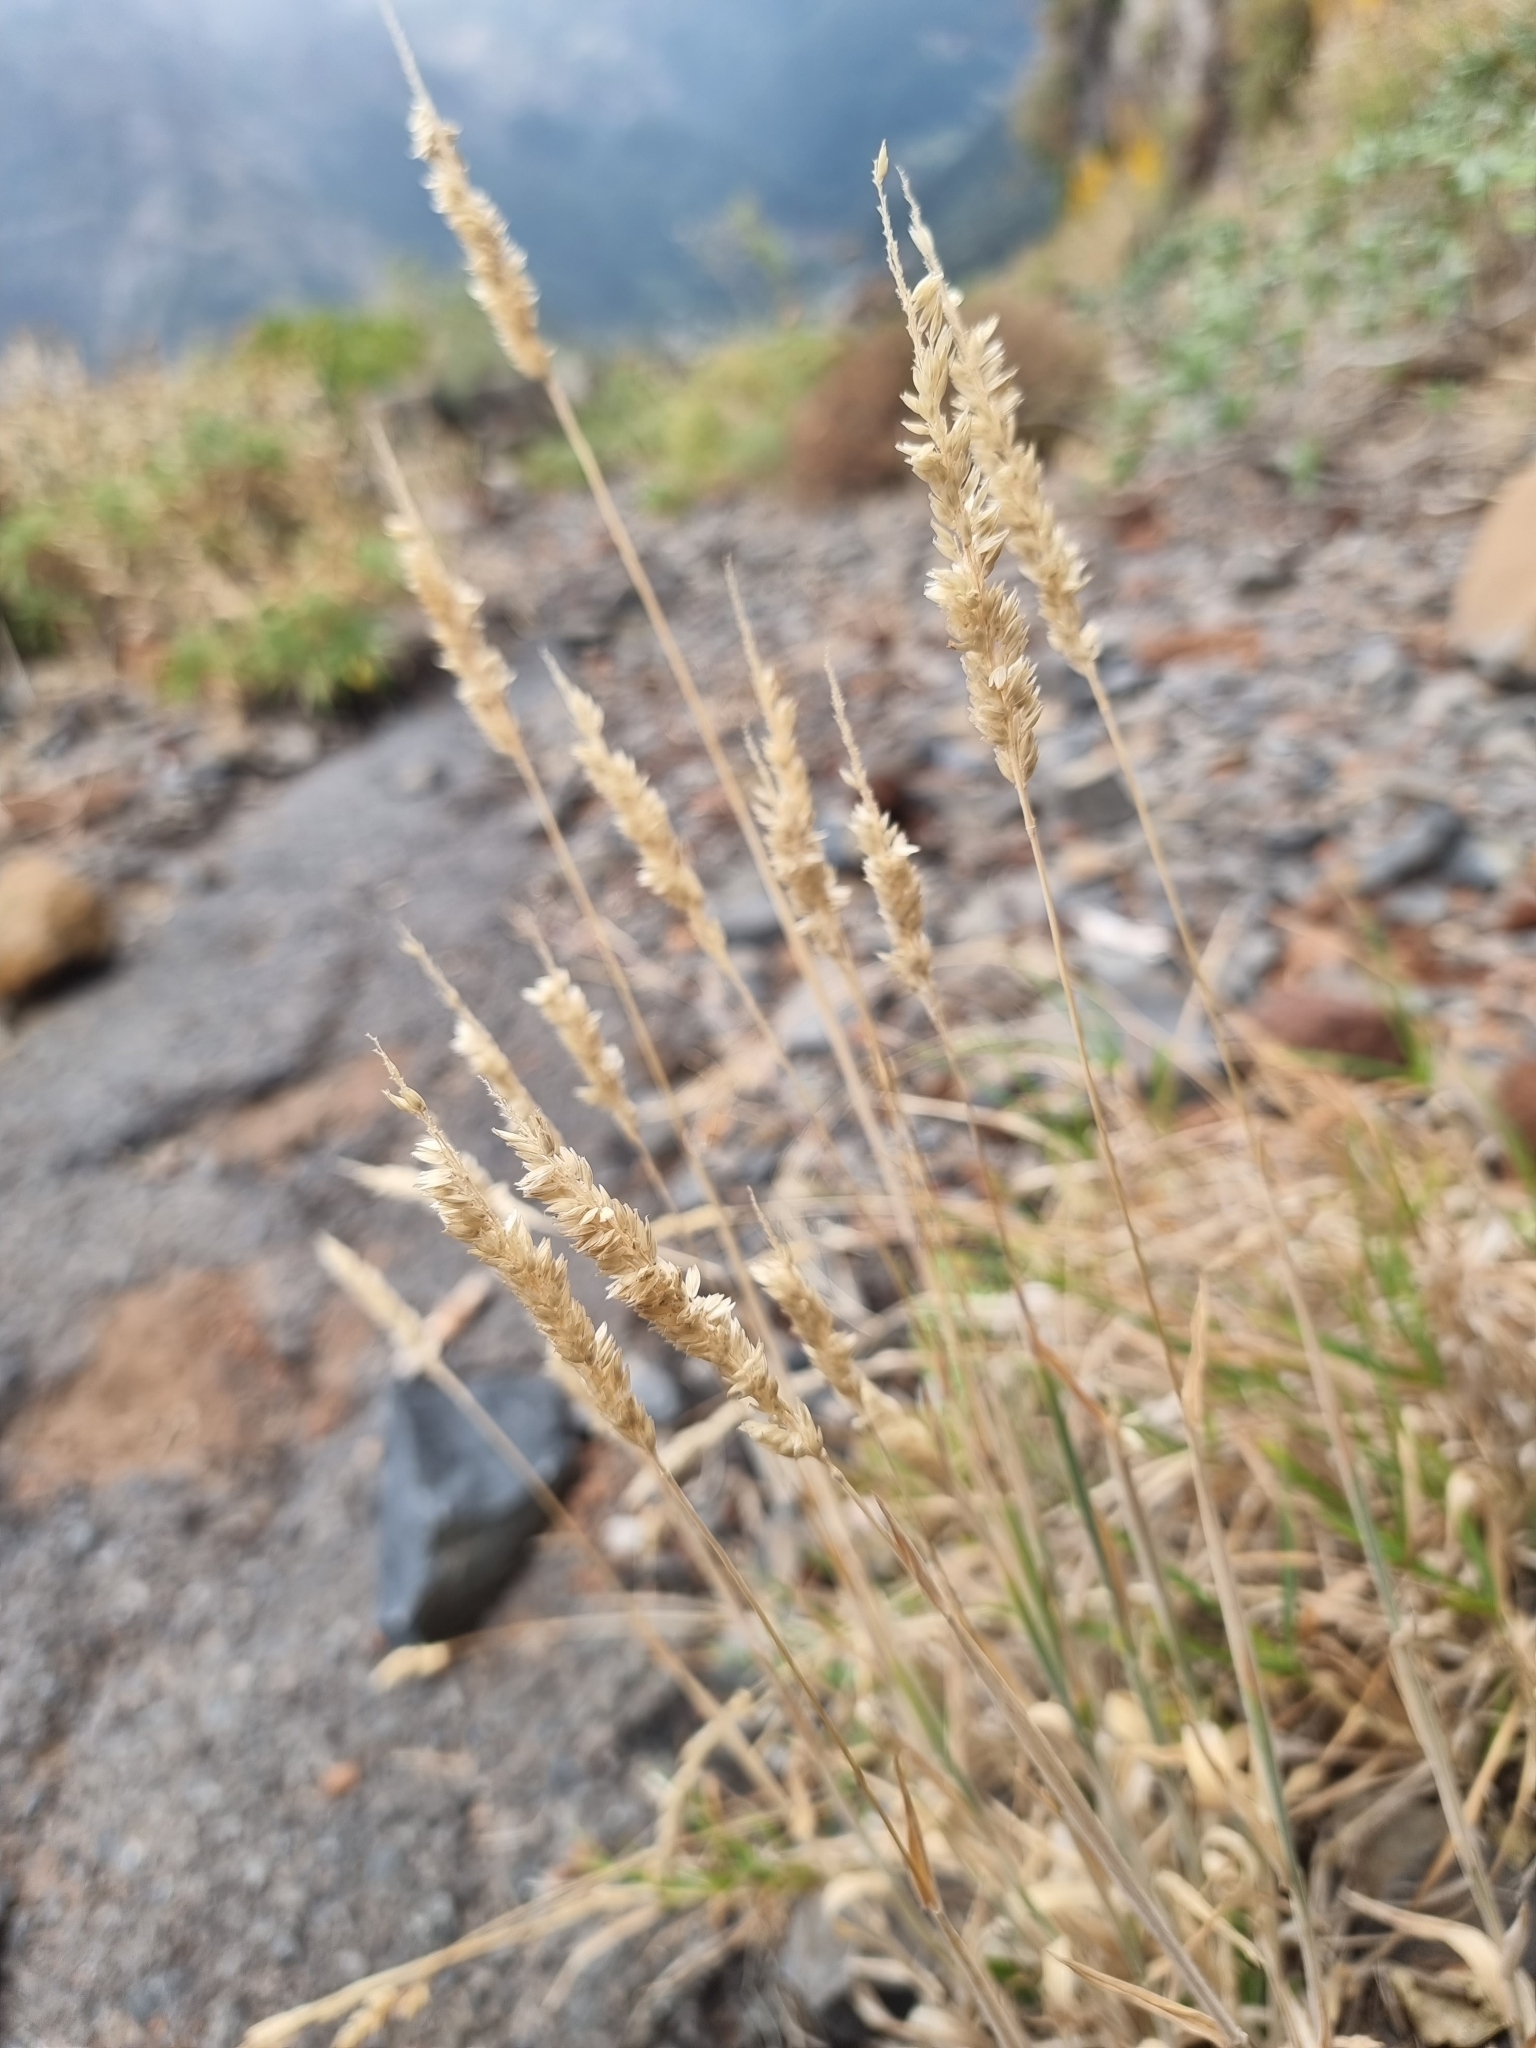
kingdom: Plantae
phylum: Tracheophyta
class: Liliopsida
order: Poales
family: Poaceae
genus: Holcus
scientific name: Holcus lanatus
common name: Yorkshire-fog
